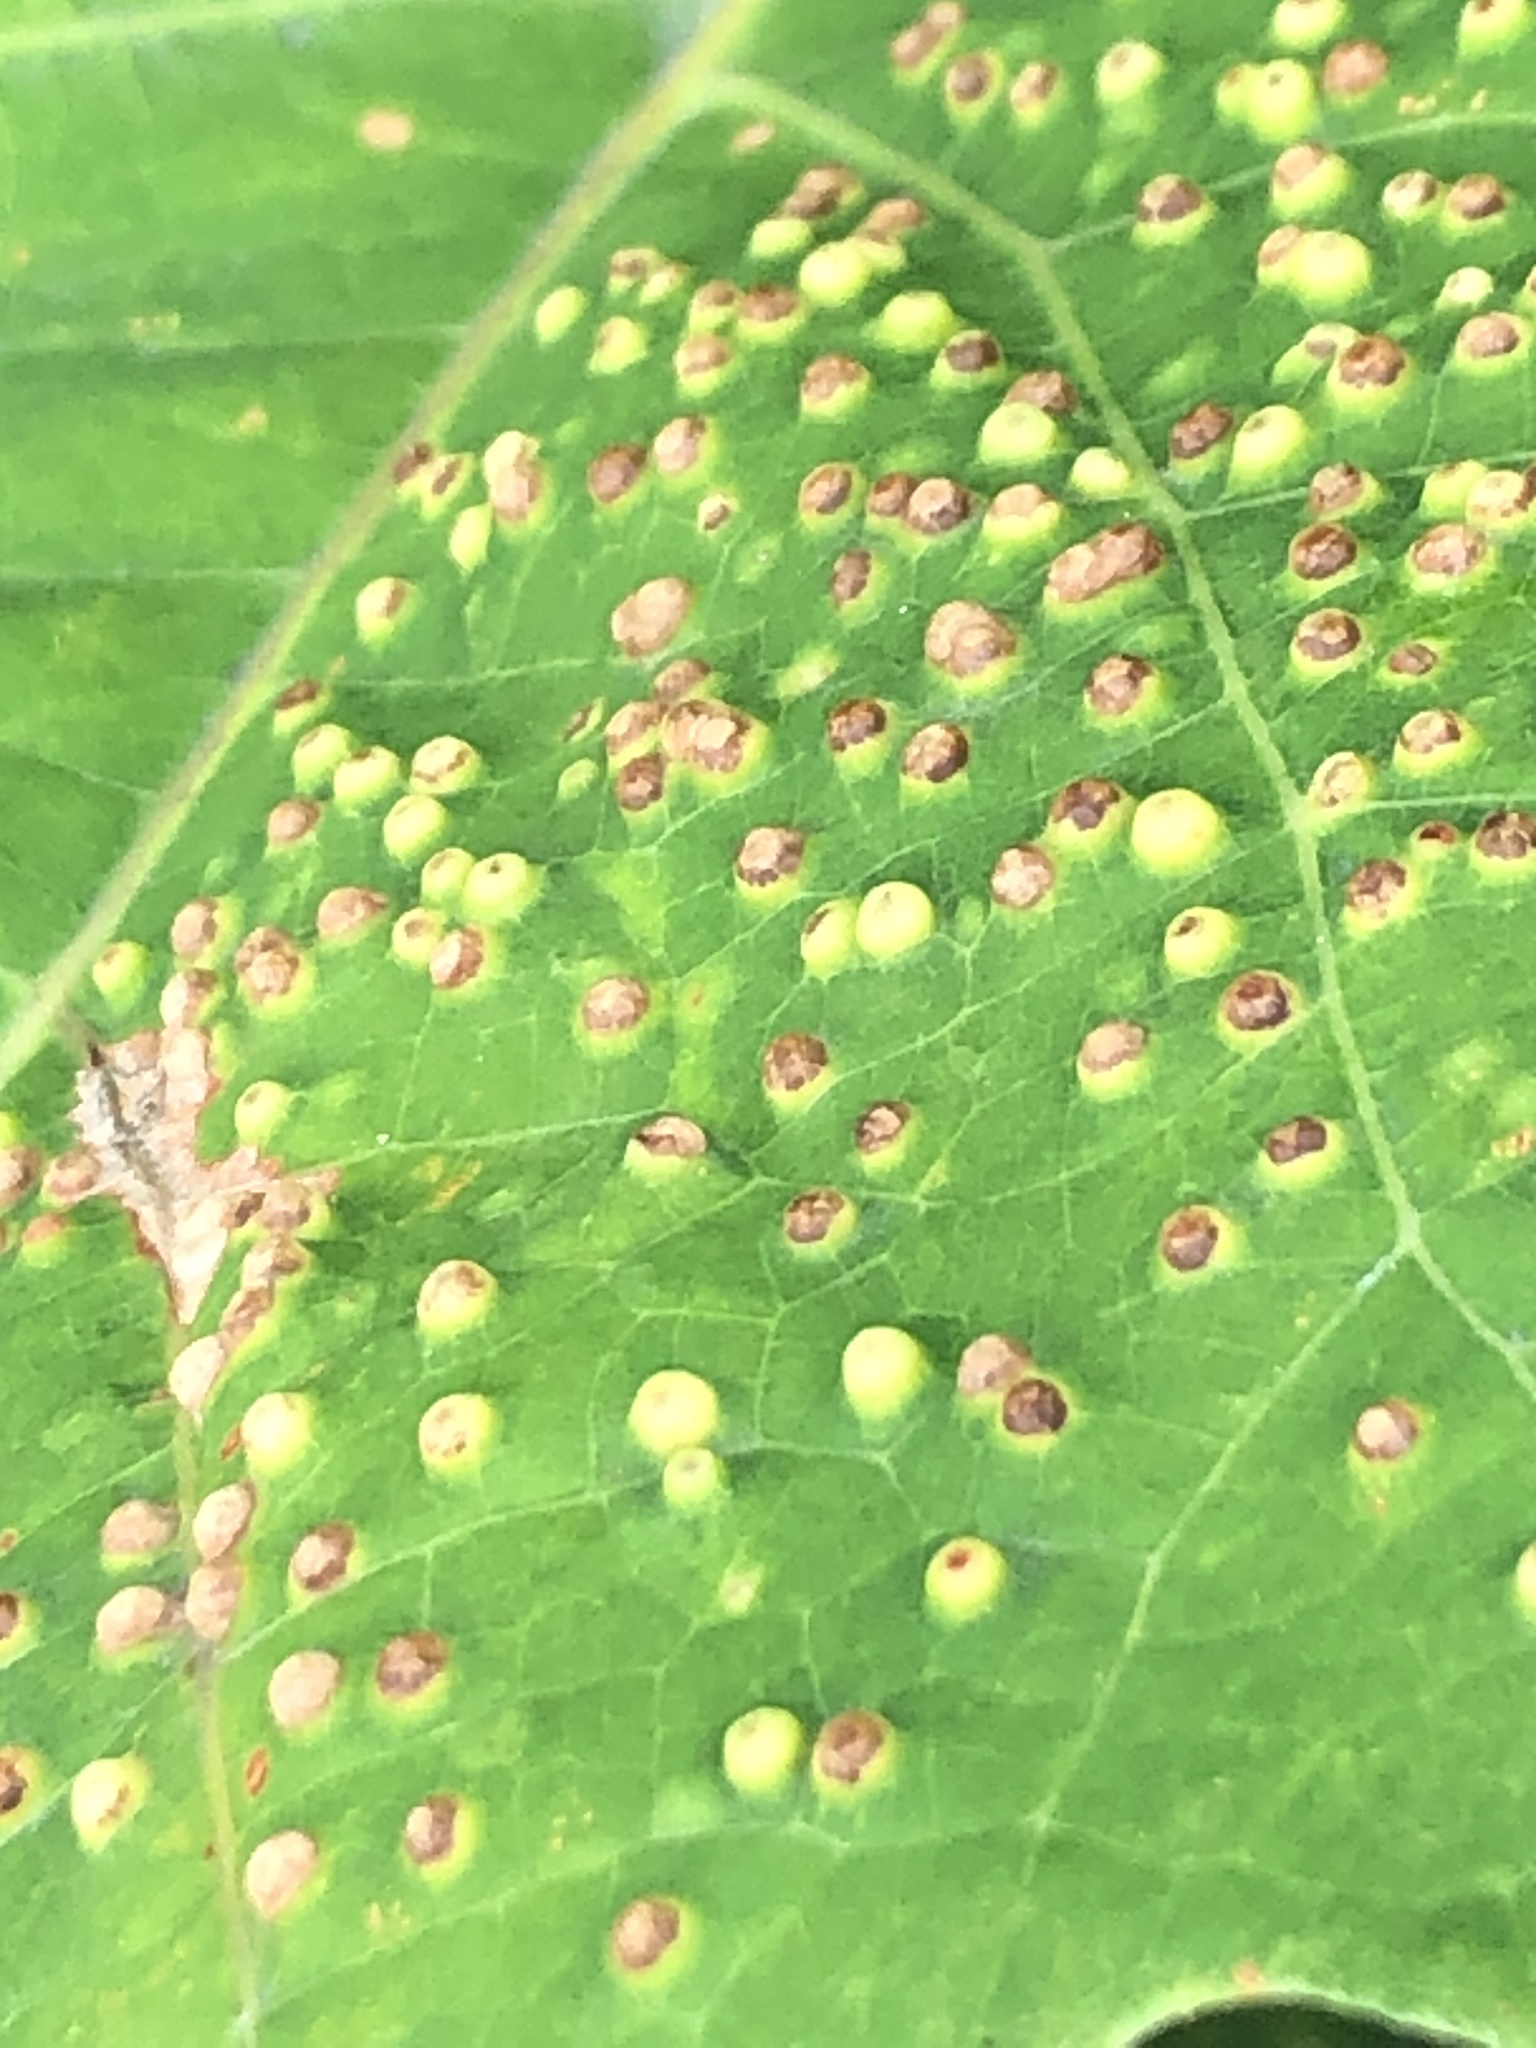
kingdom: Animalia
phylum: Arthropoda
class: Insecta
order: Hymenoptera
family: Cynipidae
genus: Neuroterus
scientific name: Neuroterus saltarius
